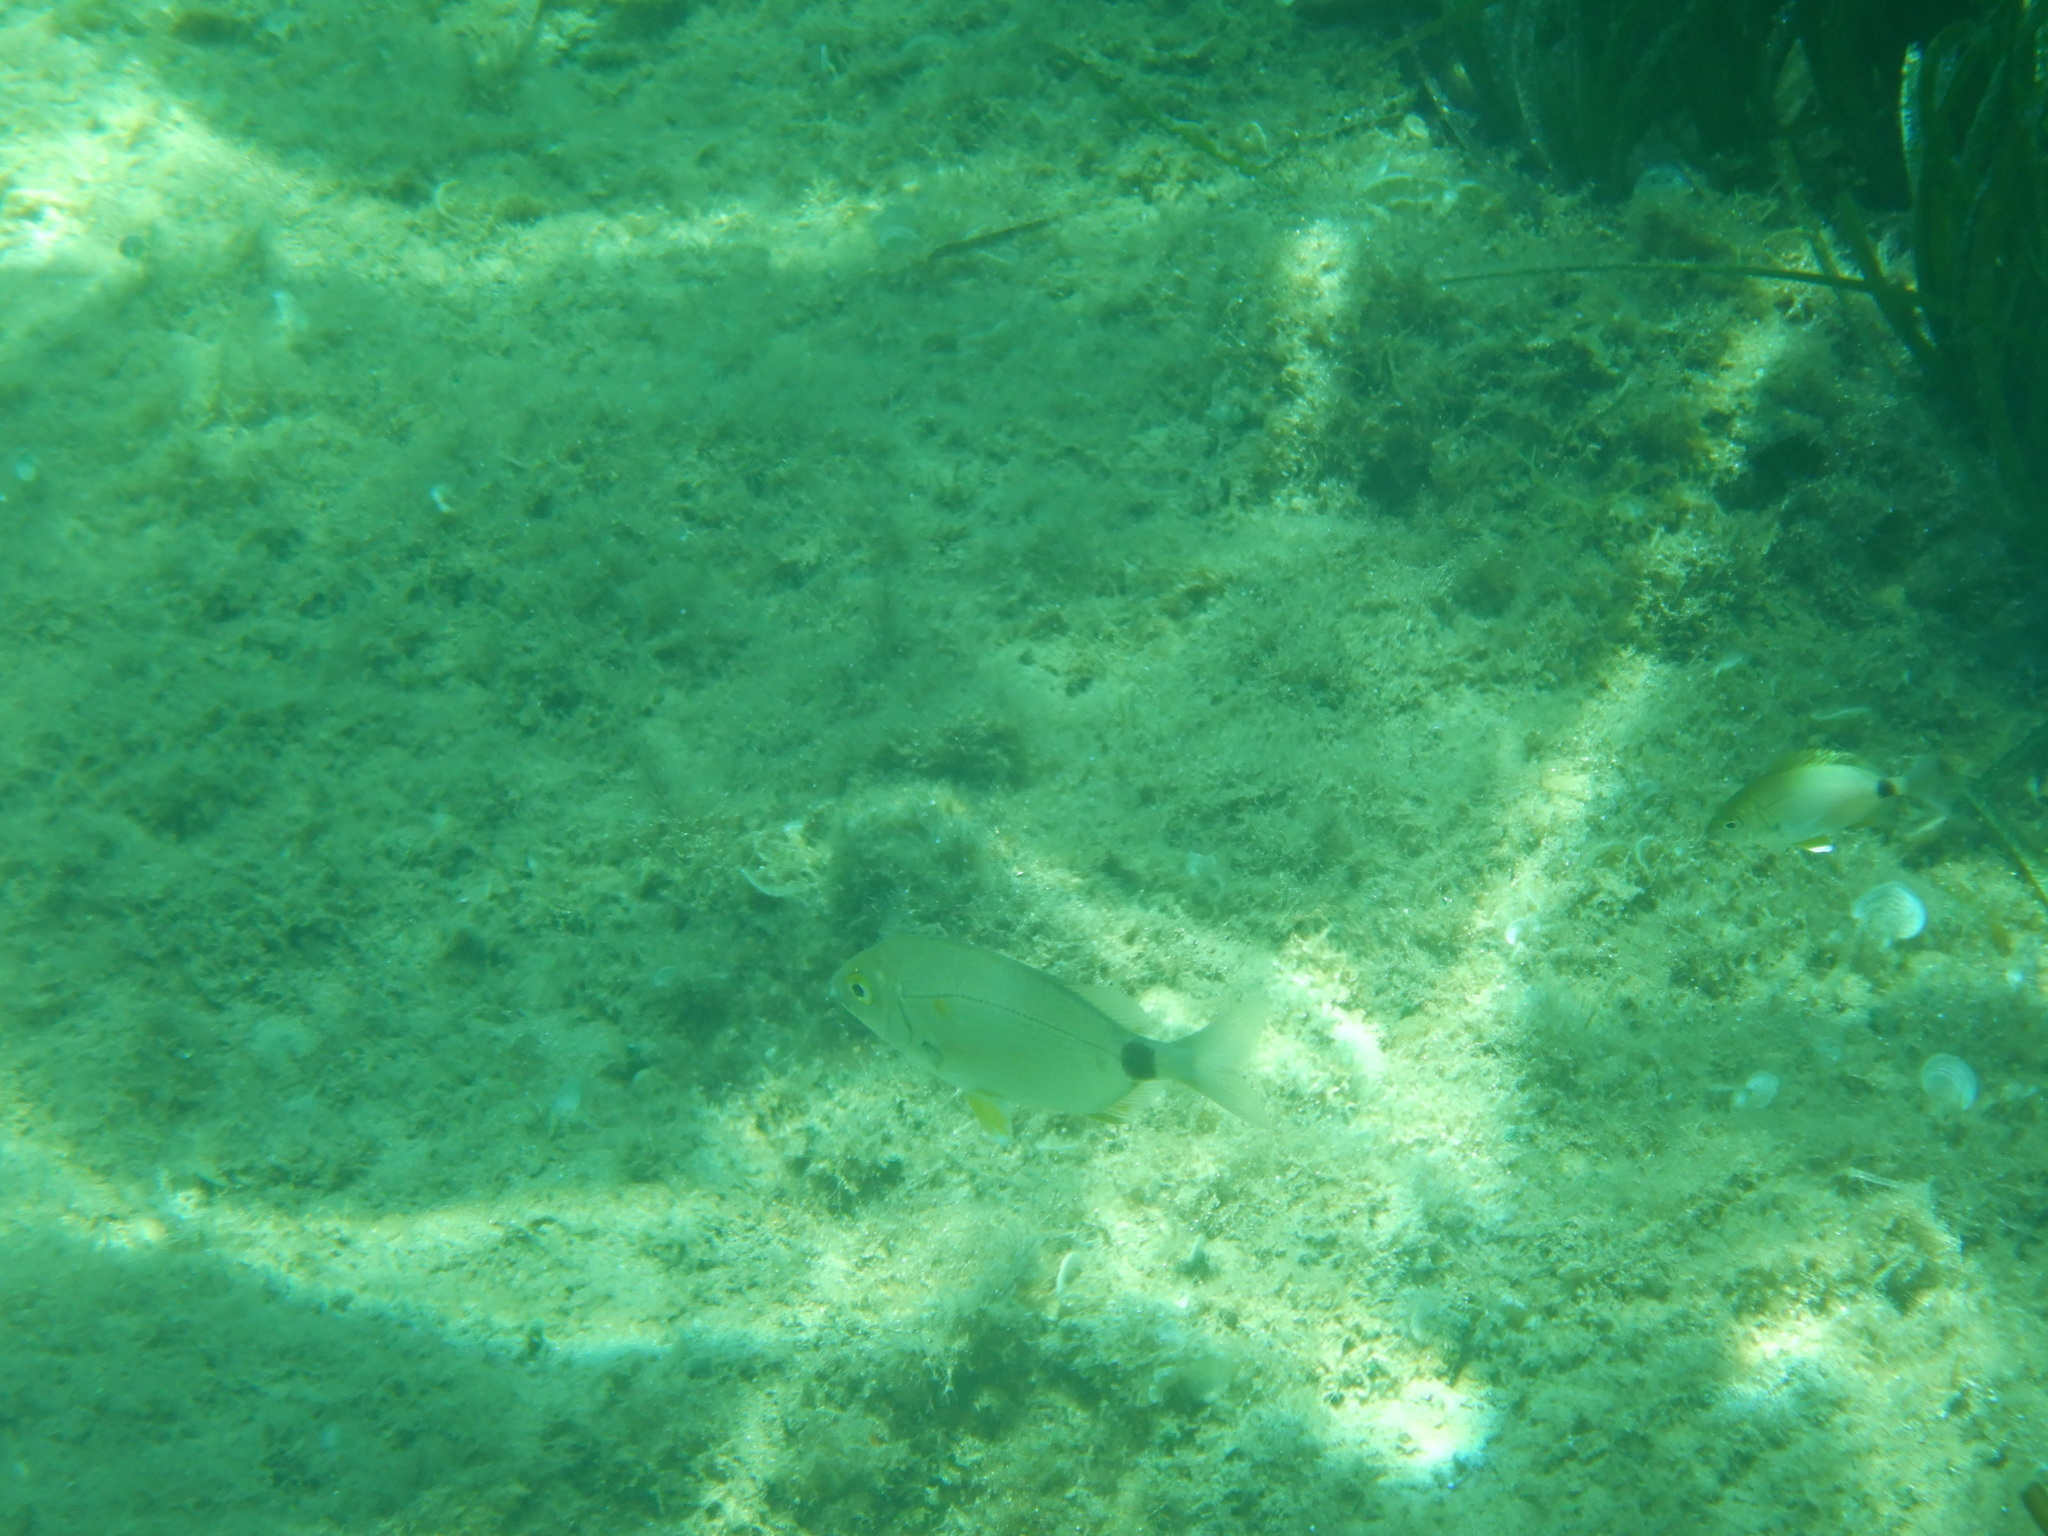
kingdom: Animalia
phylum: Chordata
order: Perciformes
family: Sparidae
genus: Diplodus
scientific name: Diplodus annularis
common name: Annular seabream
